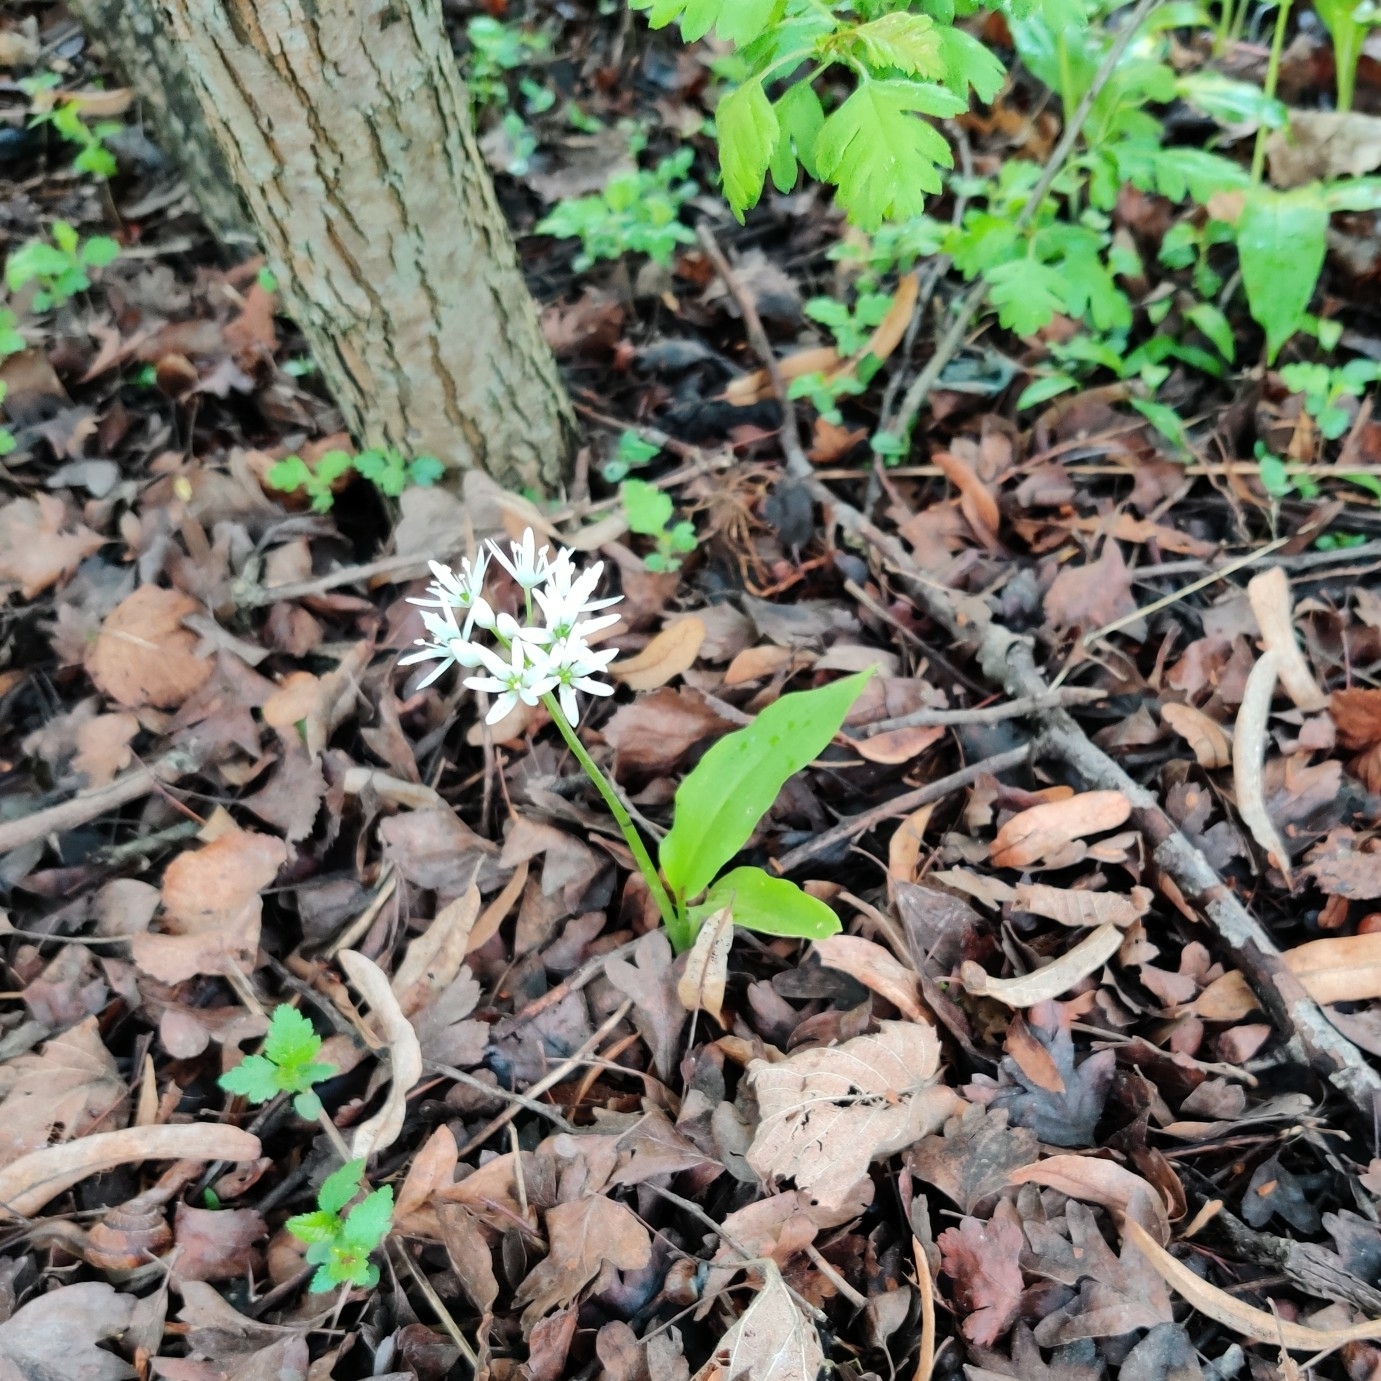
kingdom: Plantae
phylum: Tracheophyta
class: Liliopsida
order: Asparagales
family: Amaryllidaceae
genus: Allium
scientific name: Allium ursinum
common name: Ramsons
